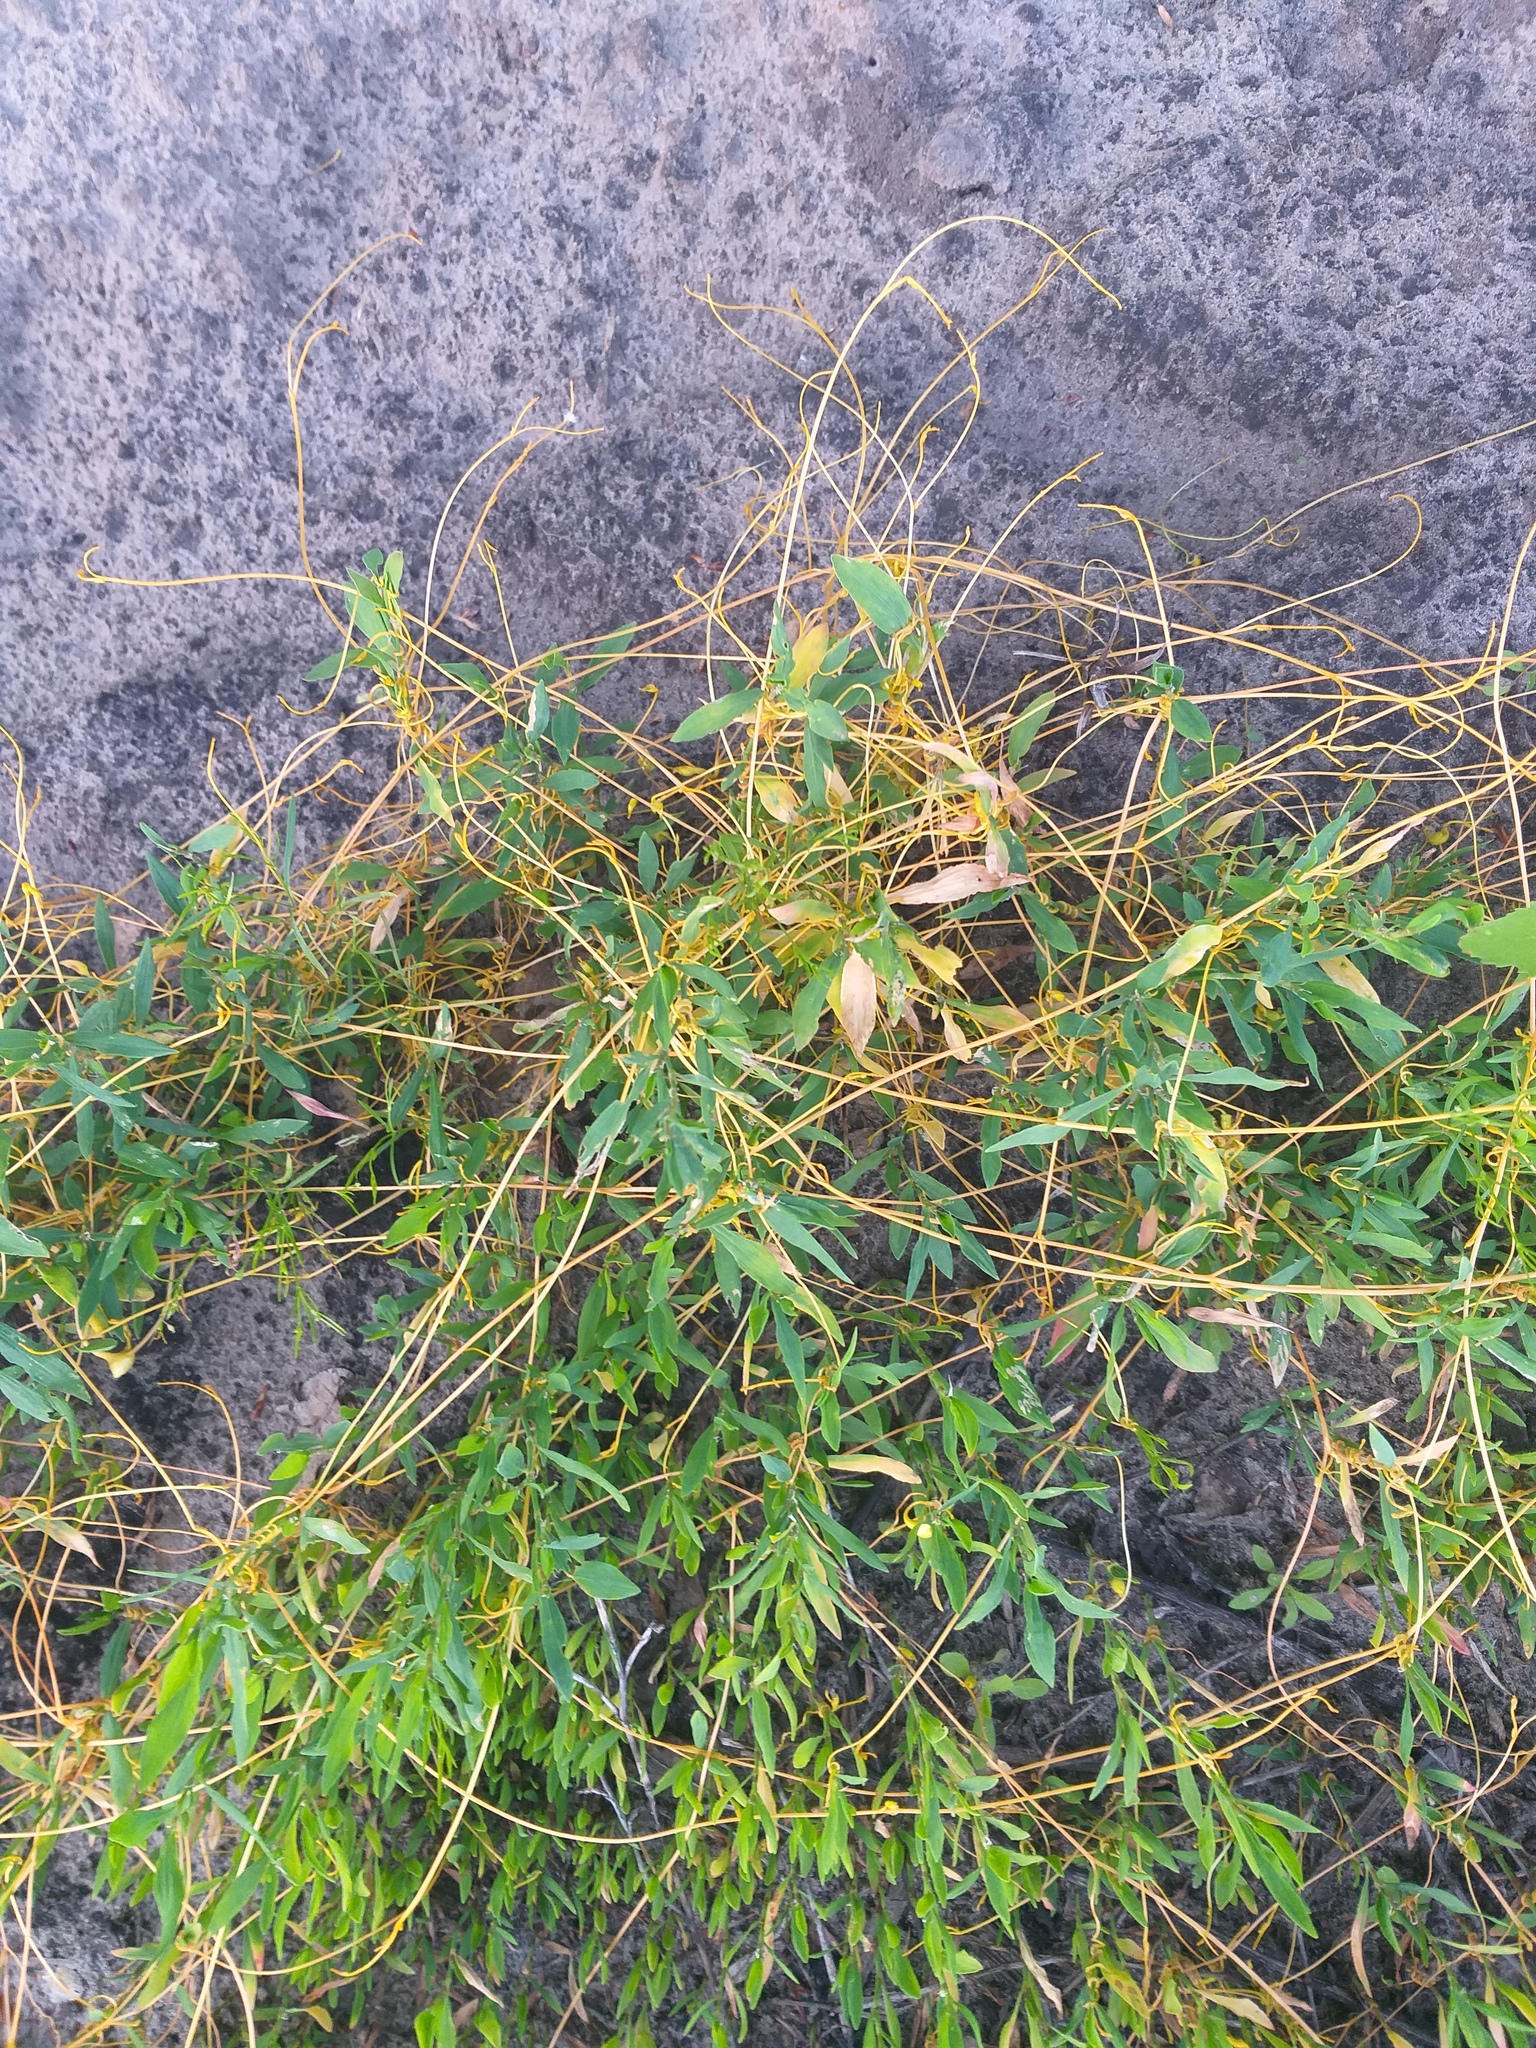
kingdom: Plantae
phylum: Tracheophyta
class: Magnoliopsida
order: Solanales
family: Convolvulaceae
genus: Cuscuta
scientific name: Cuscuta campestris
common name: Yellow dodder
